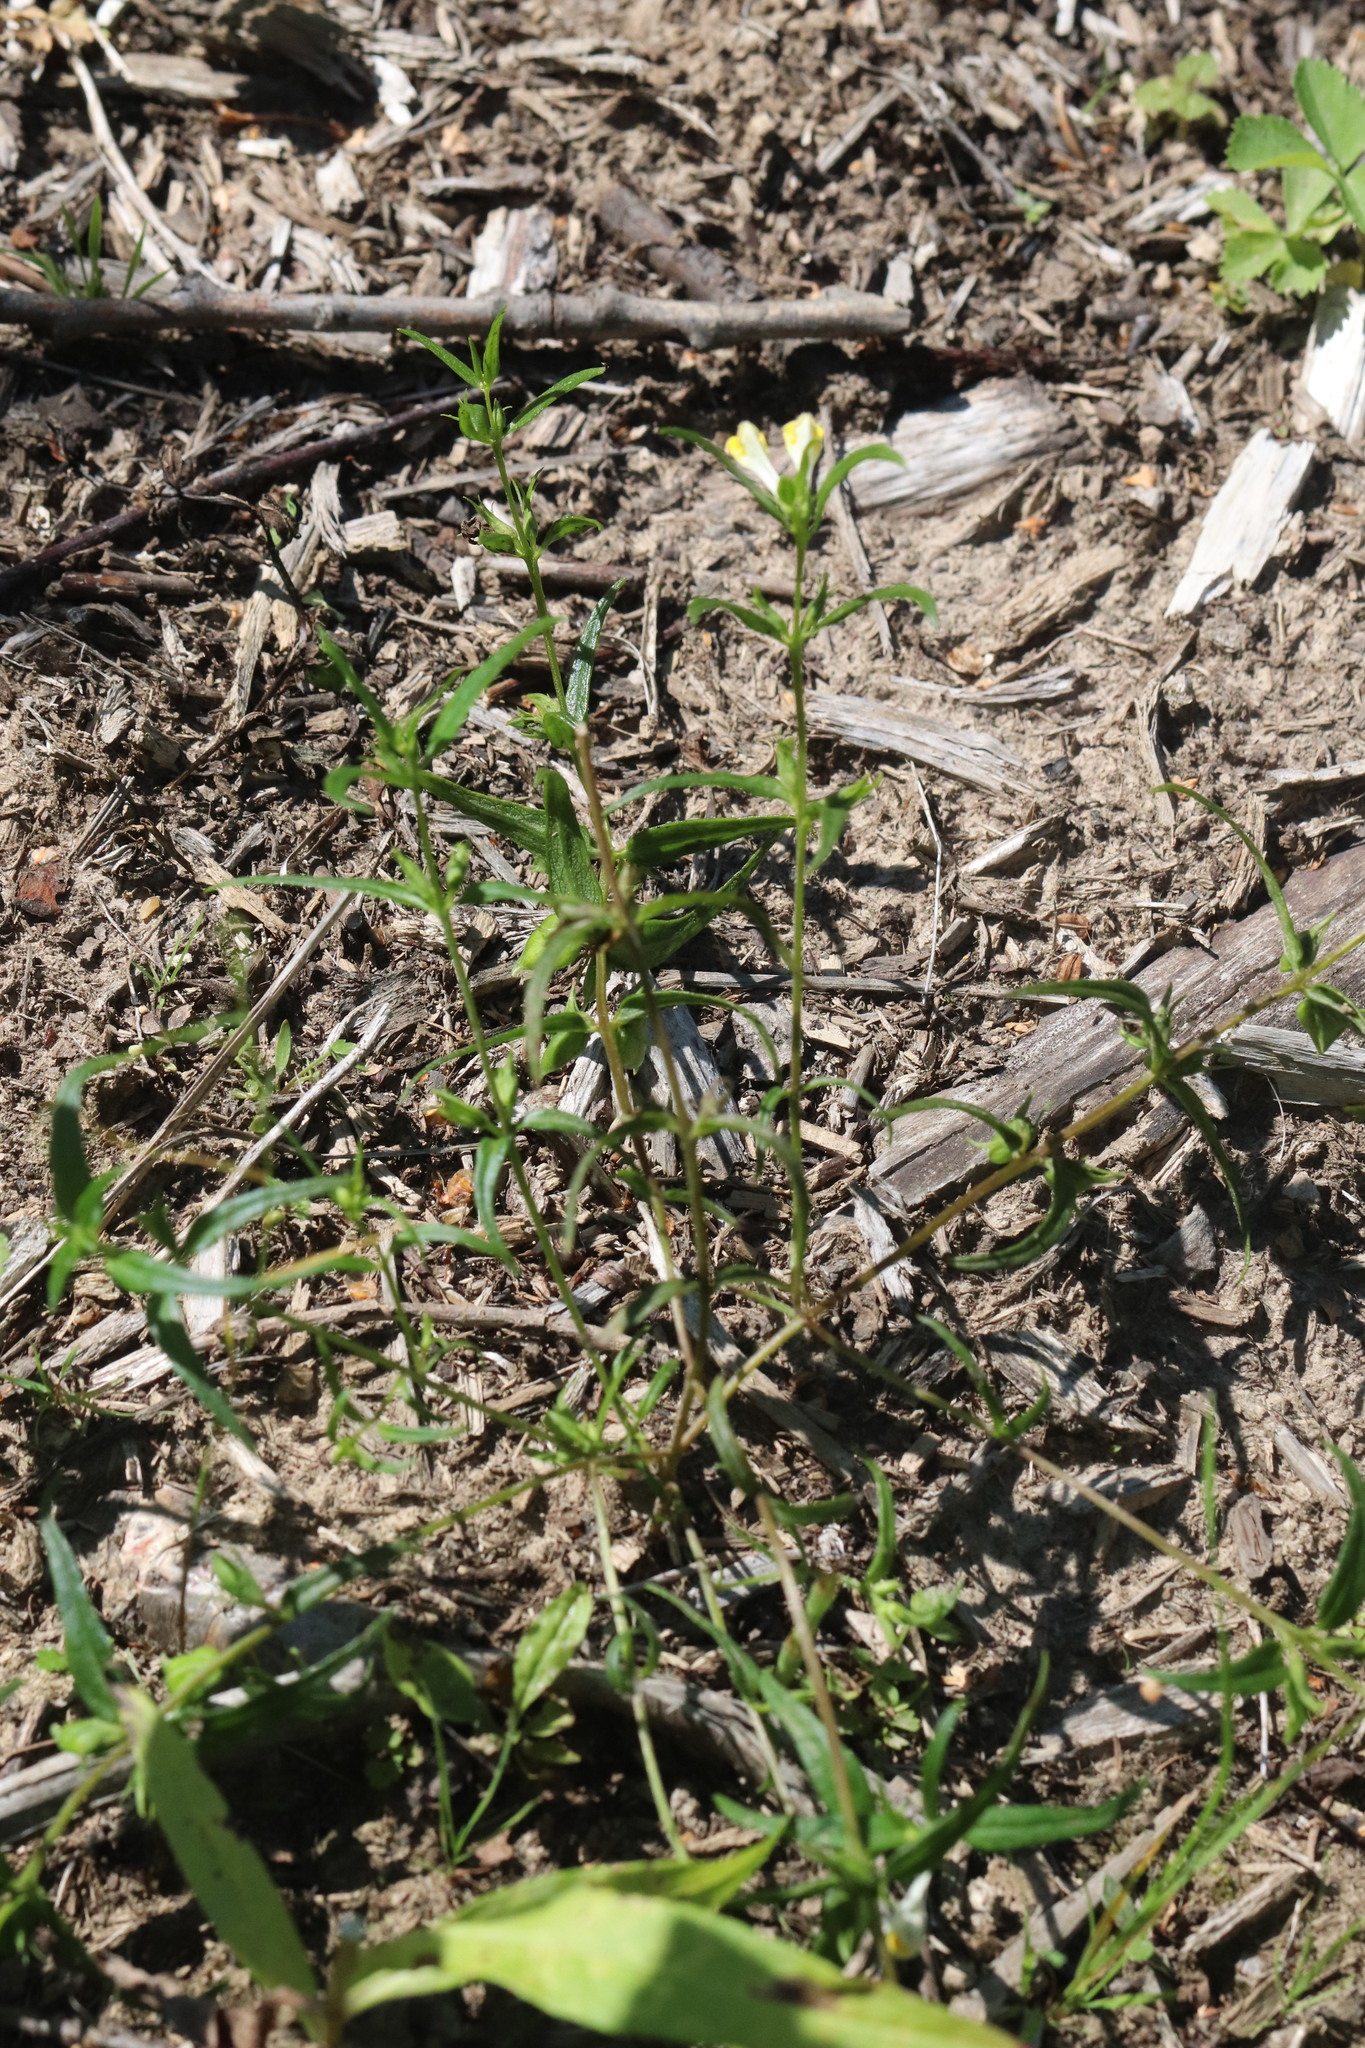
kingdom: Plantae
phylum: Tracheophyta
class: Magnoliopsida
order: Lamiales
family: Orobanchaceae
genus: Melampyrum
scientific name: Melampyrum pratense
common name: Common cow-wheat
